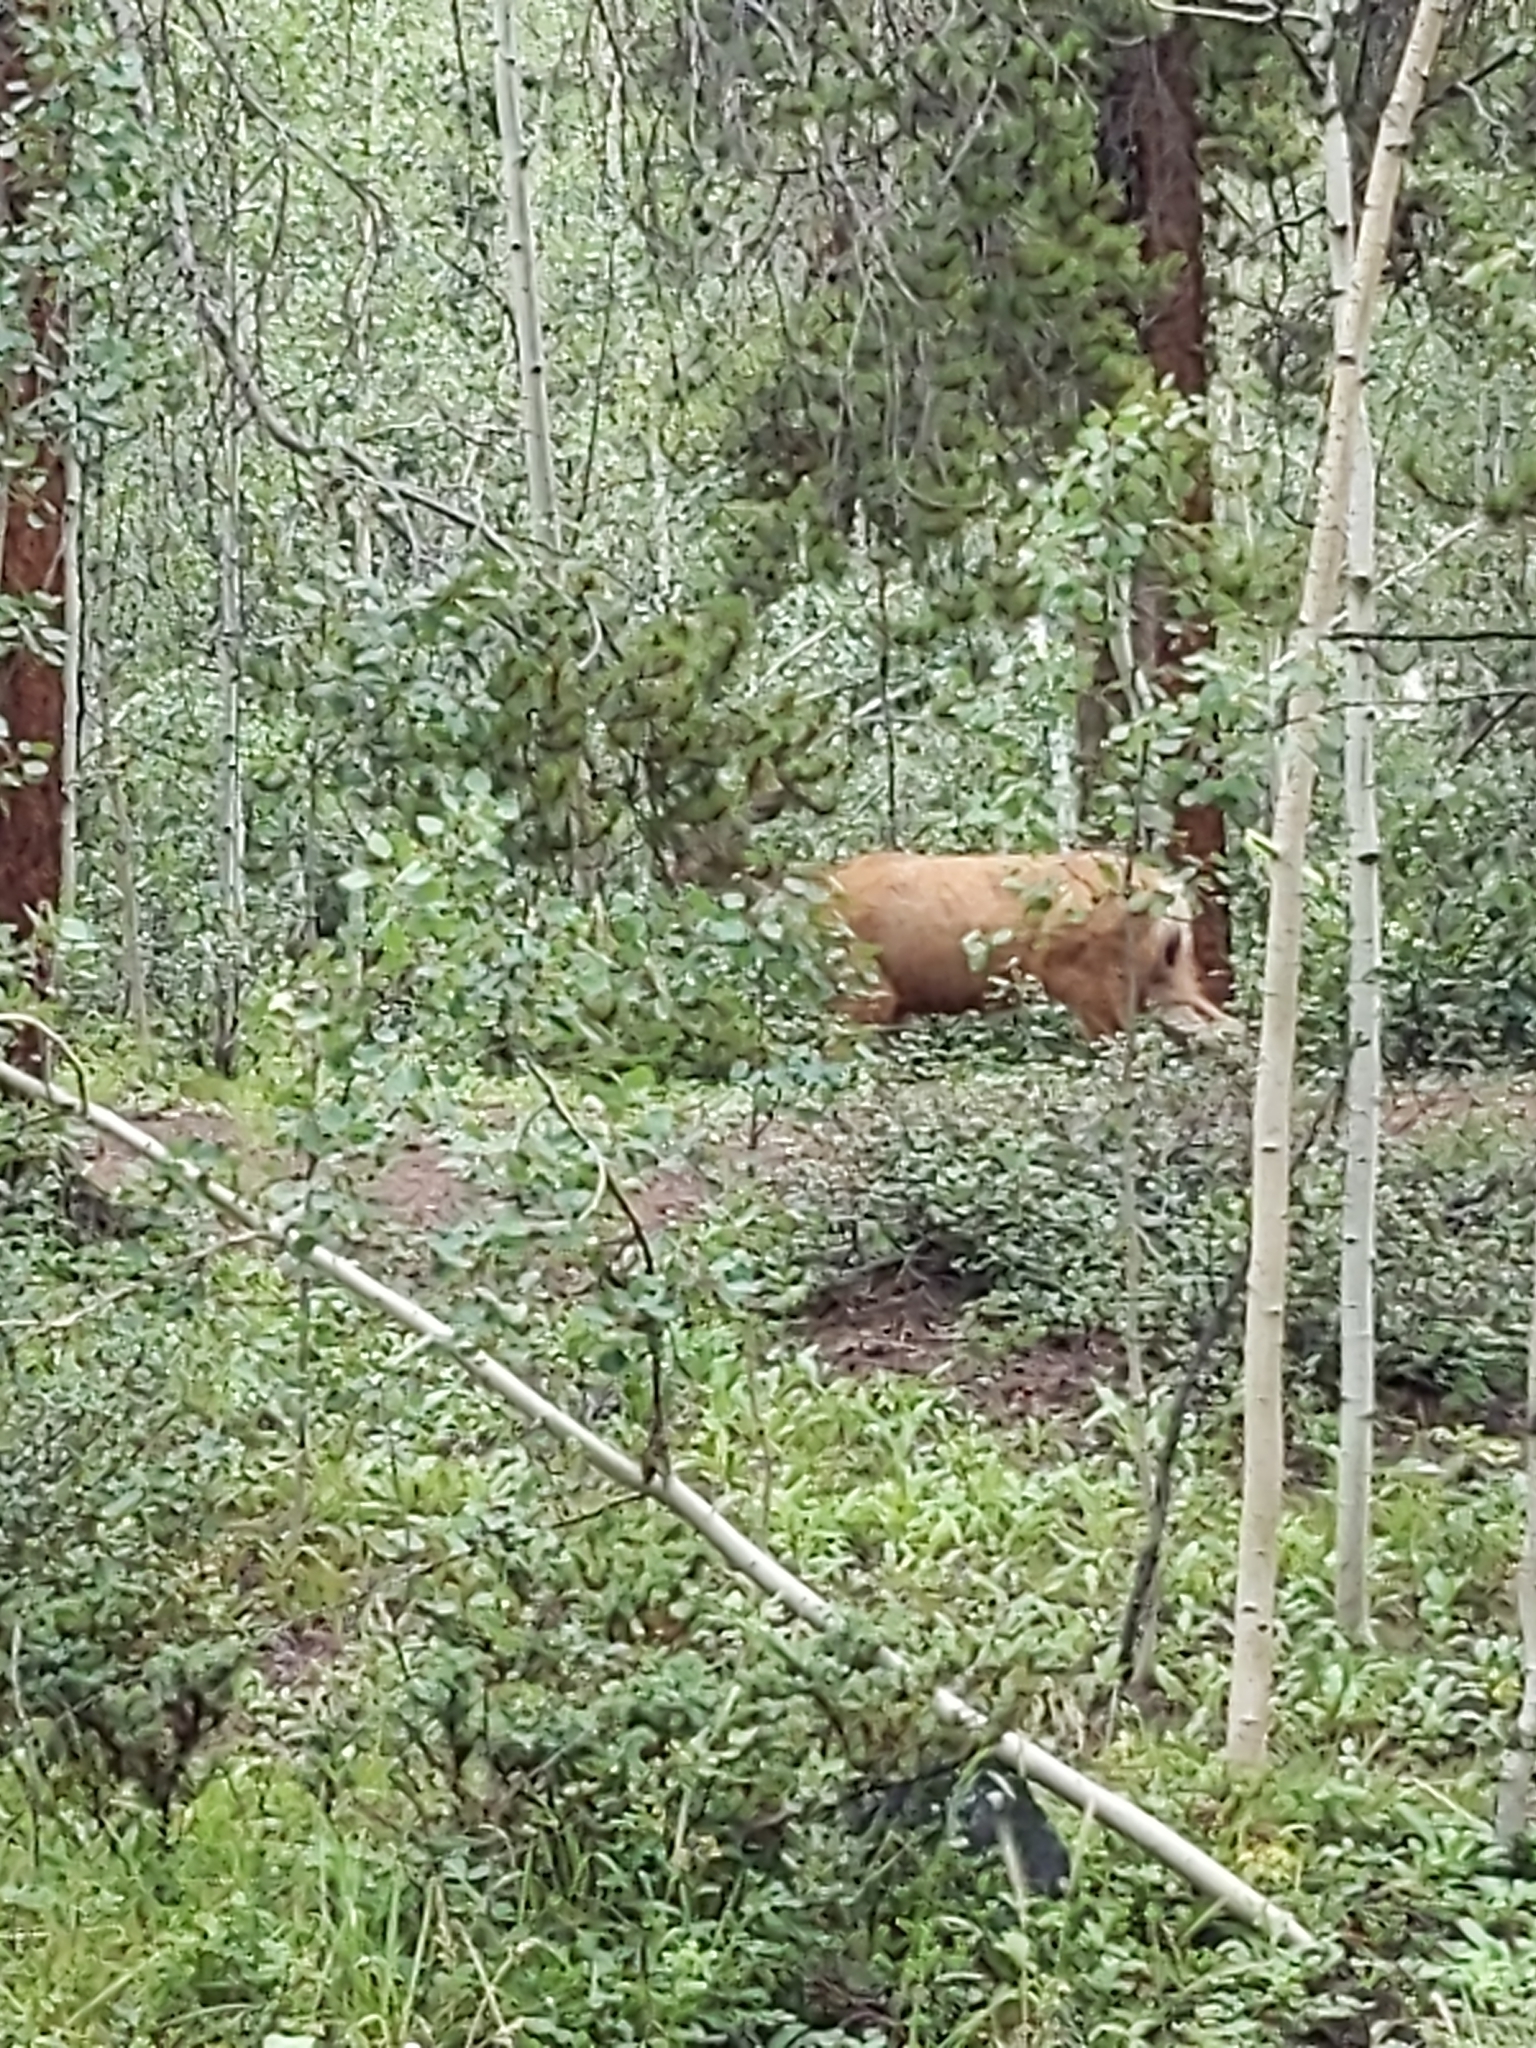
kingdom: Animalia
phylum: Chordata
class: Mammalia
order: Artiodactyla
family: Cervidae
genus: Odocoileus
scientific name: Odocoileus hemionus
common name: Mule deer
